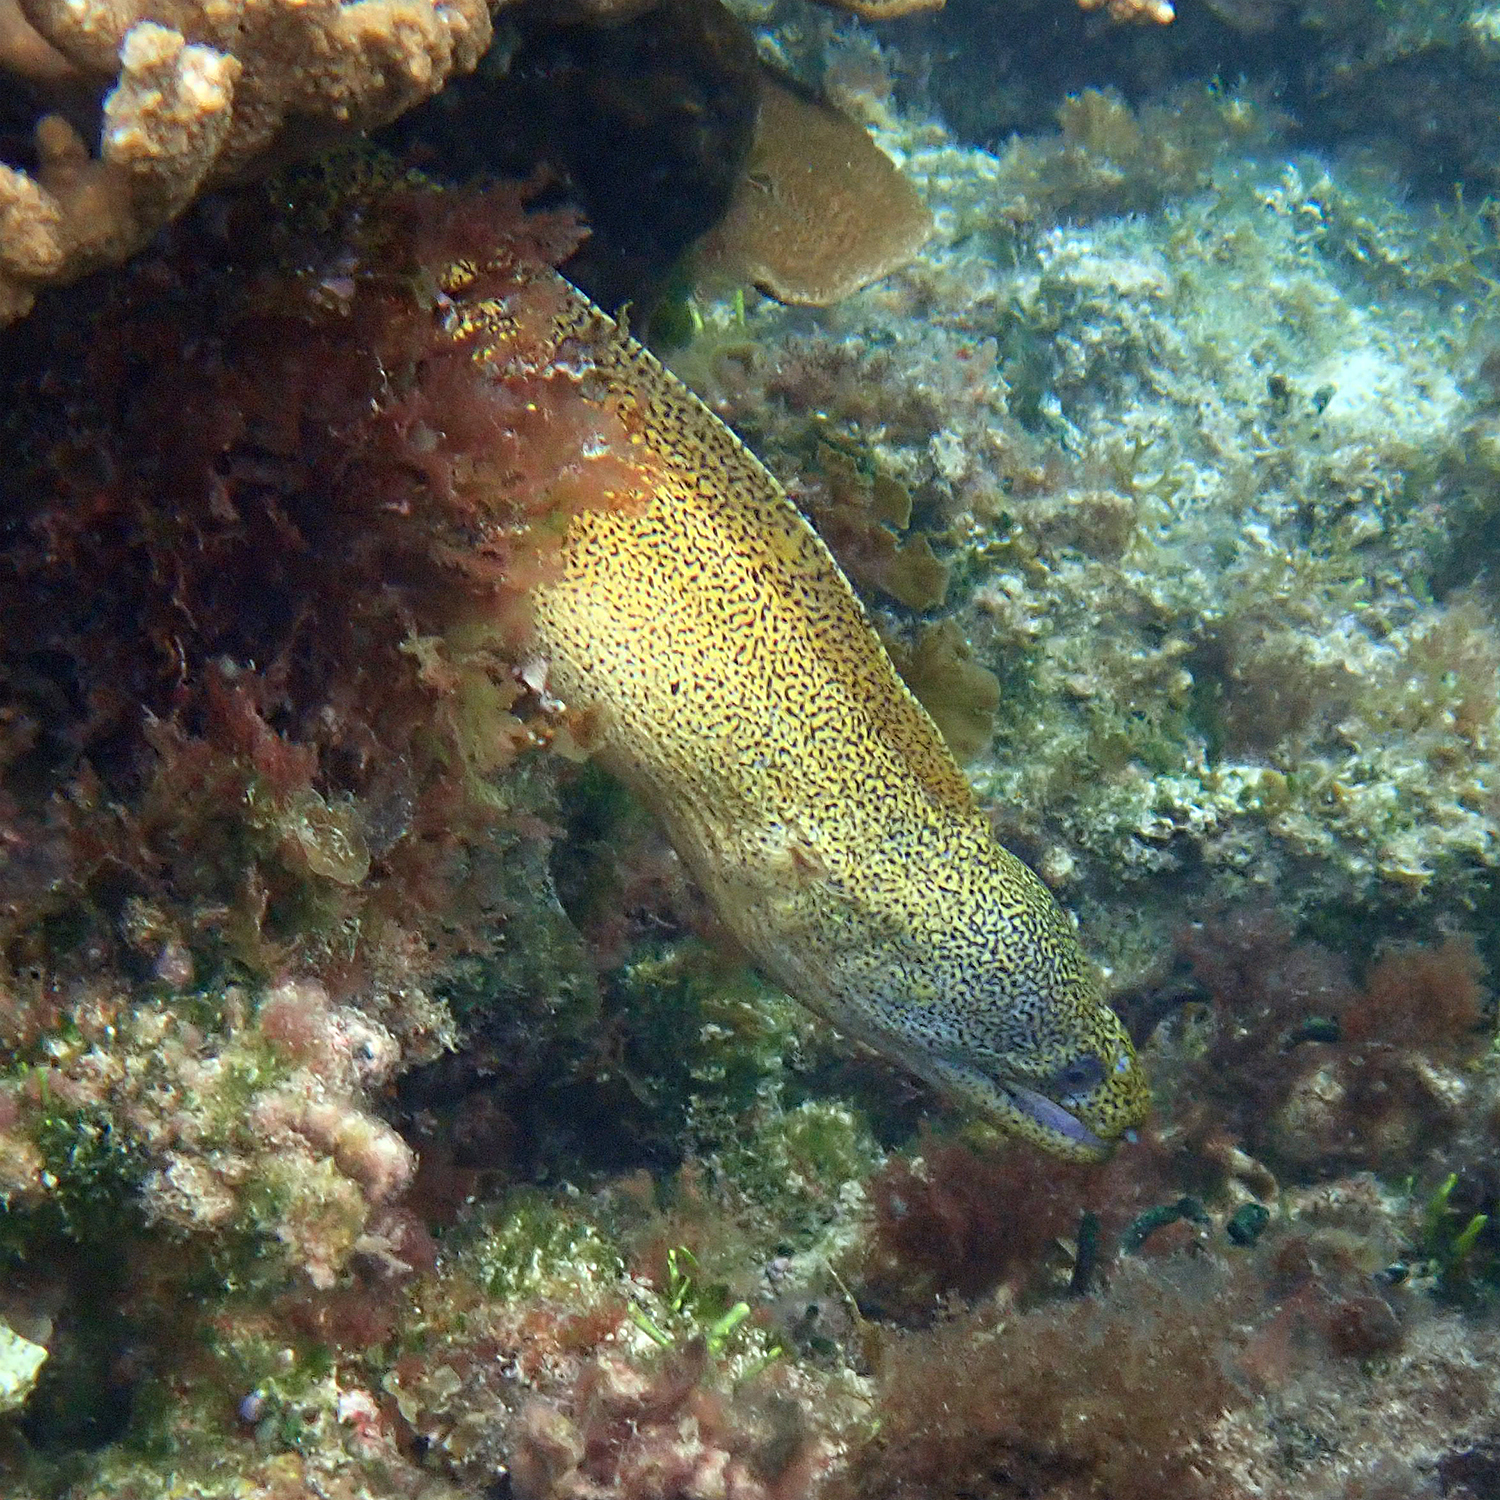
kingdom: Animalia
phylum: Chordata
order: Anguilliformes
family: Muraenidae
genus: Gymnothorax
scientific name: Gymnothorax eurostus
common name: Stout moray
